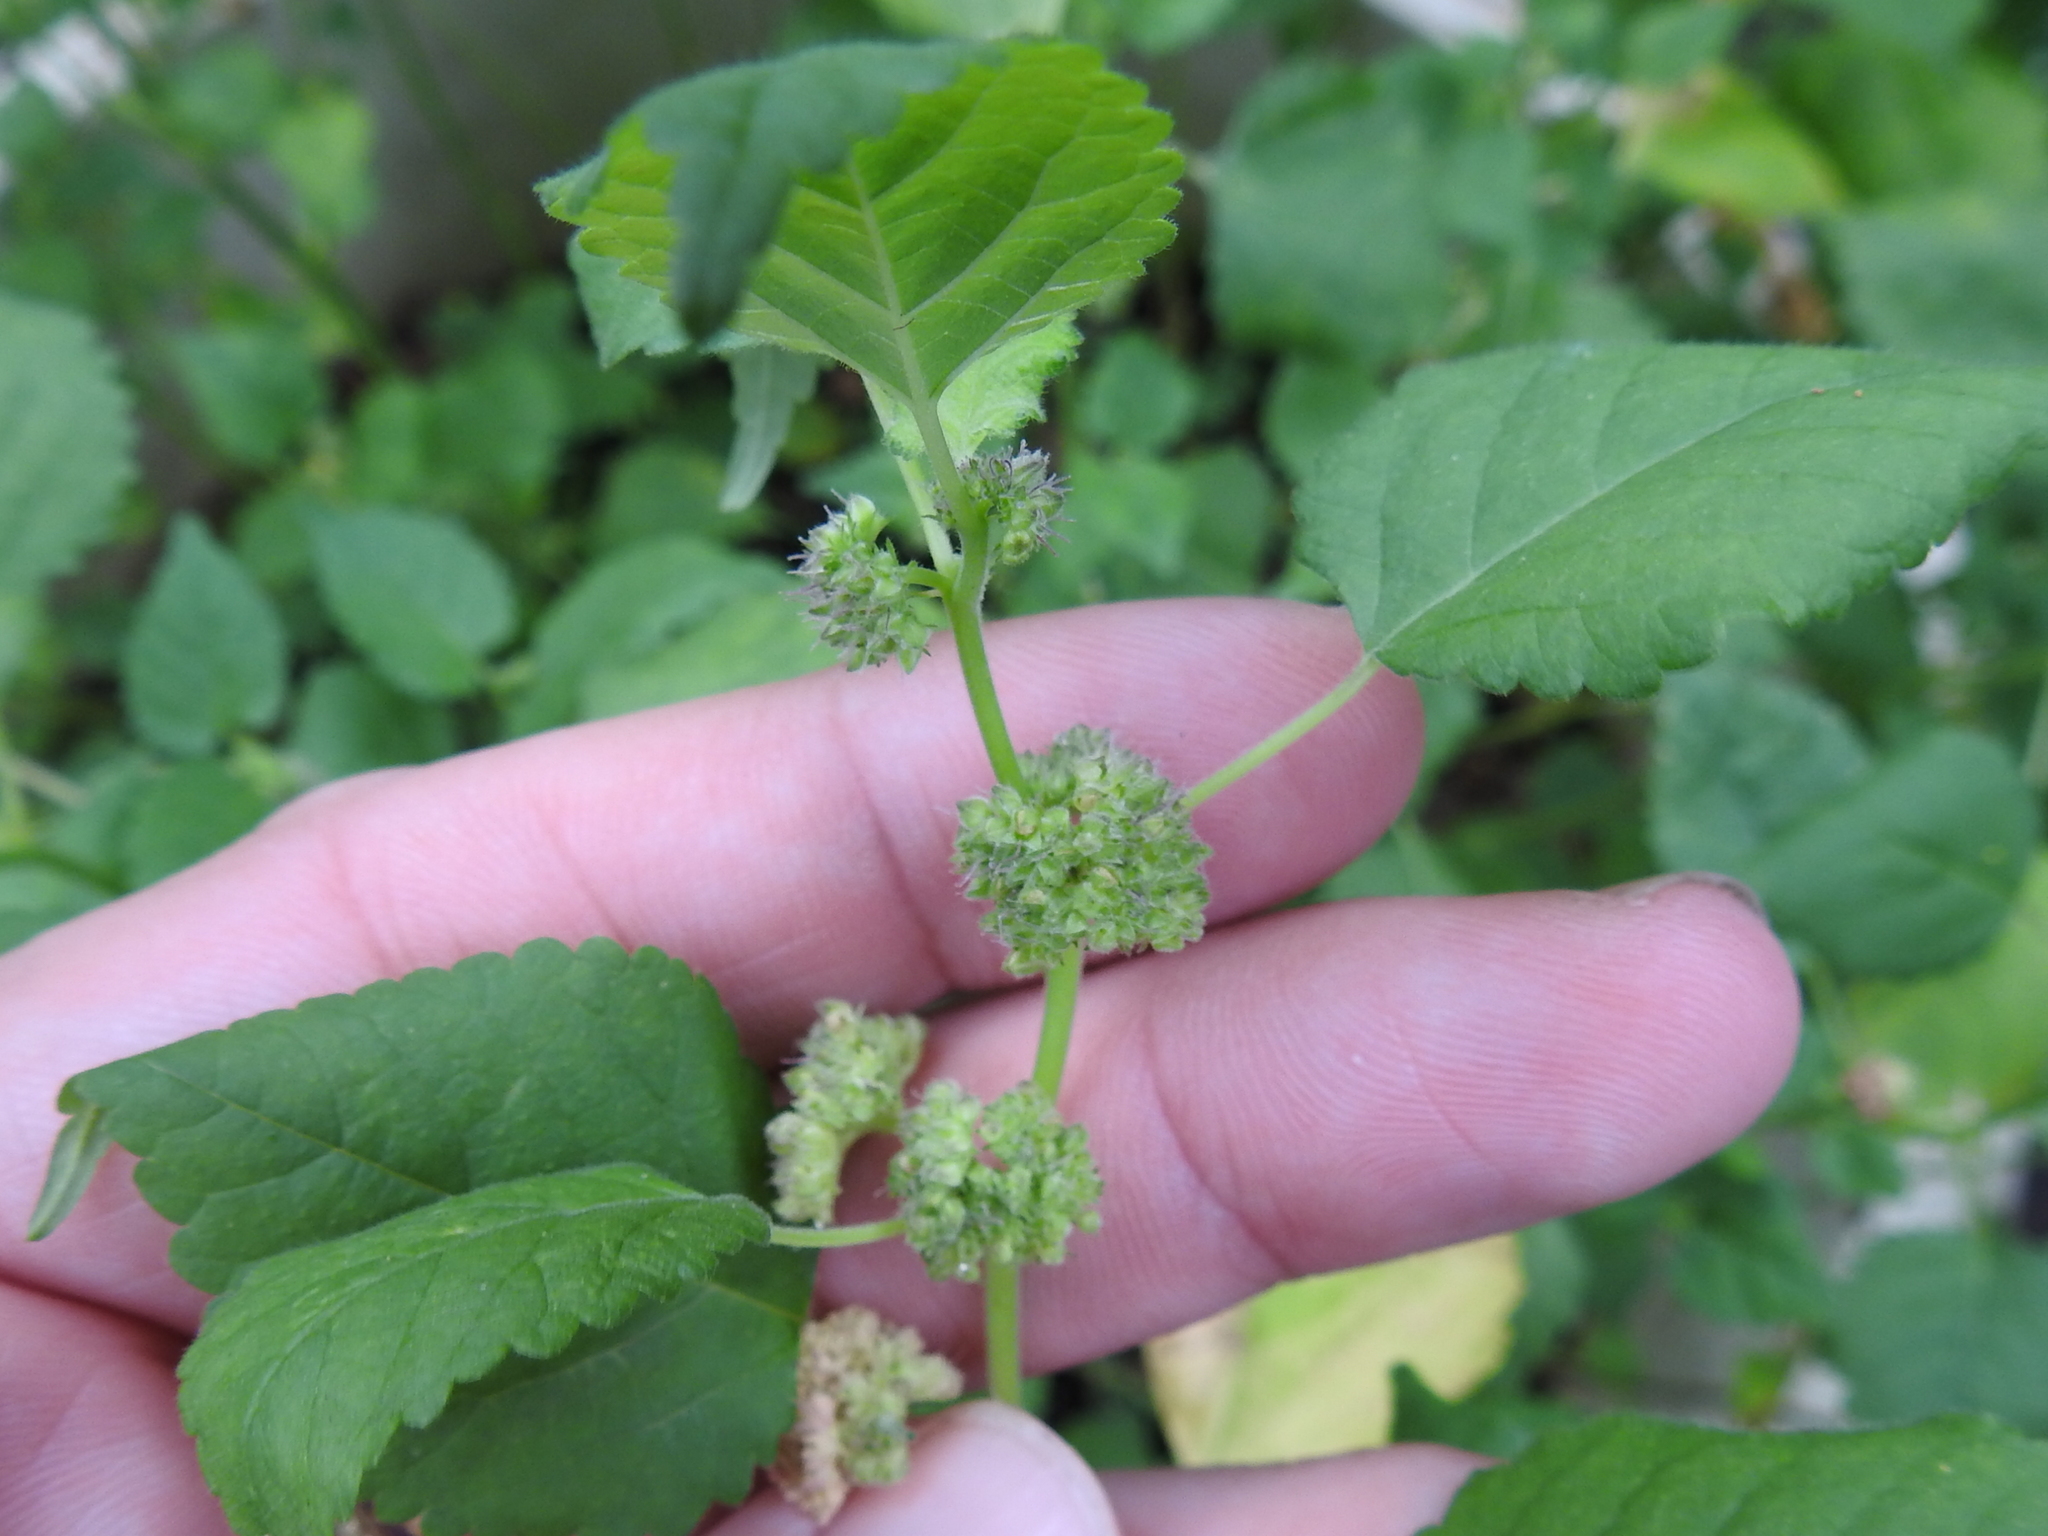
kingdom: Plantae
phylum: Tracheophyta
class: Magnoliopsida
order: Rosales
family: Moraceae
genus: Fatoua
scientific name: Fatoua villosa
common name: Hairy crabweed
